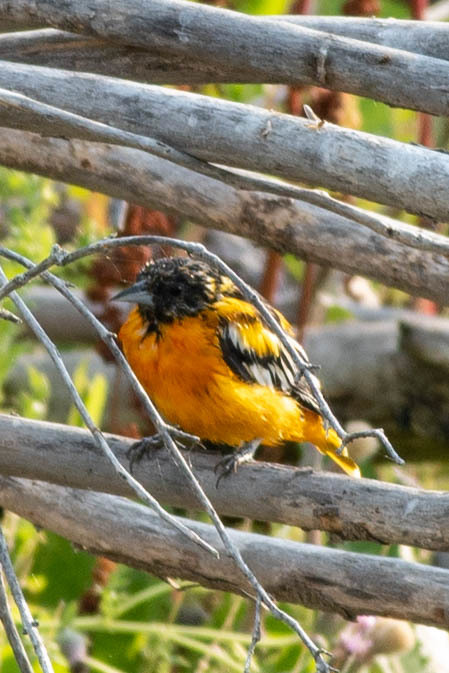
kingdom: Animalia
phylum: Chordata
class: Aves
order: Passeriformes
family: Icteridae
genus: Icterus
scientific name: Icterus galbula
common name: Baltimore oriole
